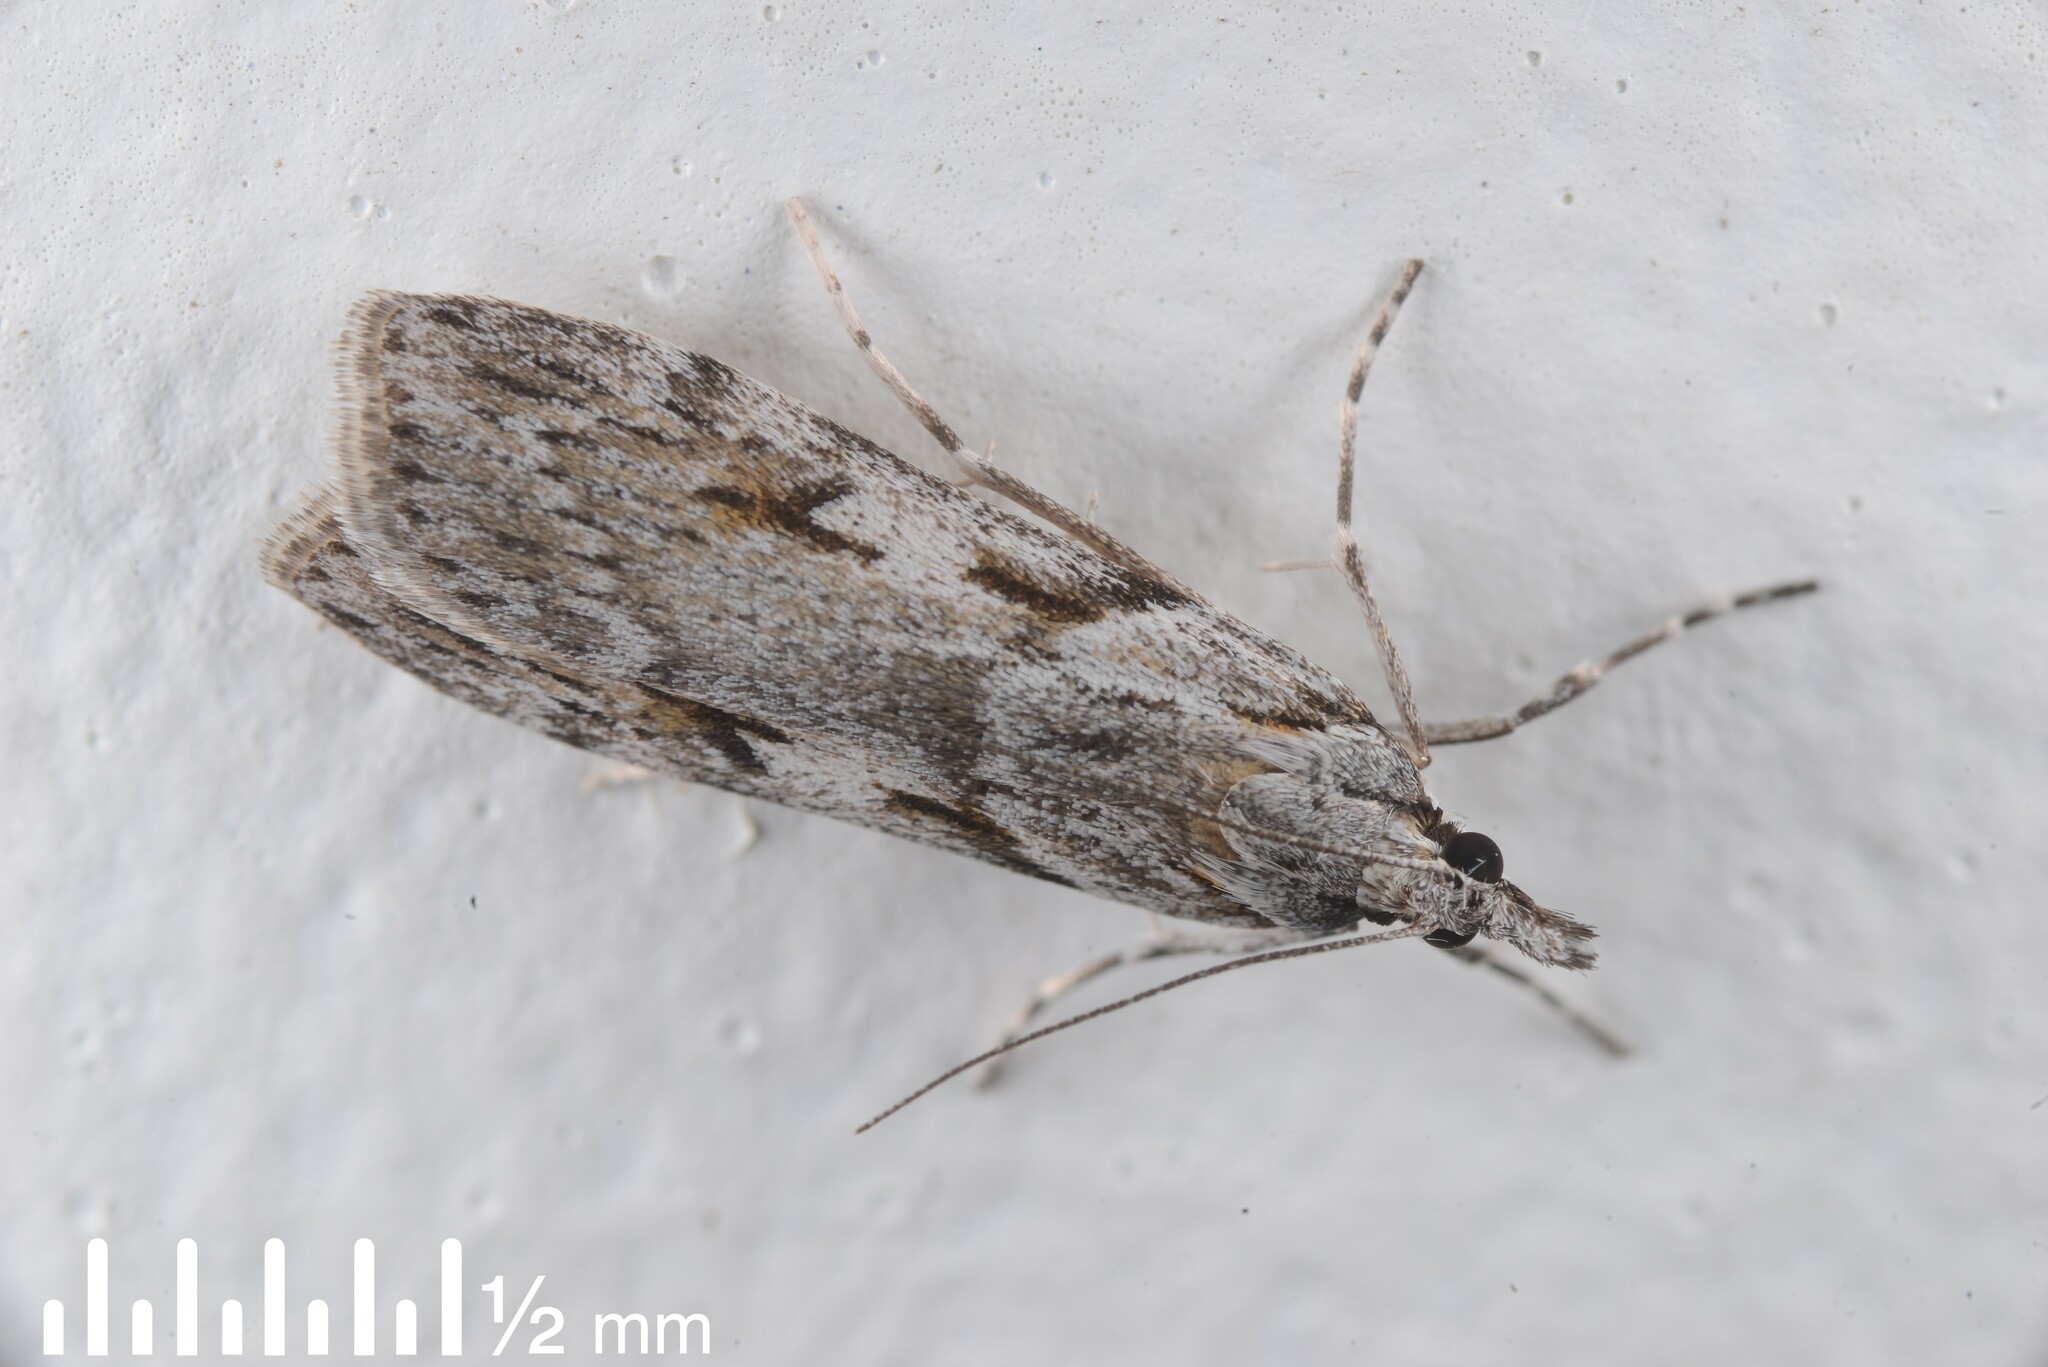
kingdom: Animalia
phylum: Arthropoda
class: Insecta
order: Lepidoptera
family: Crambidae
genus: Scoparia
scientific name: Scoparia halopis
